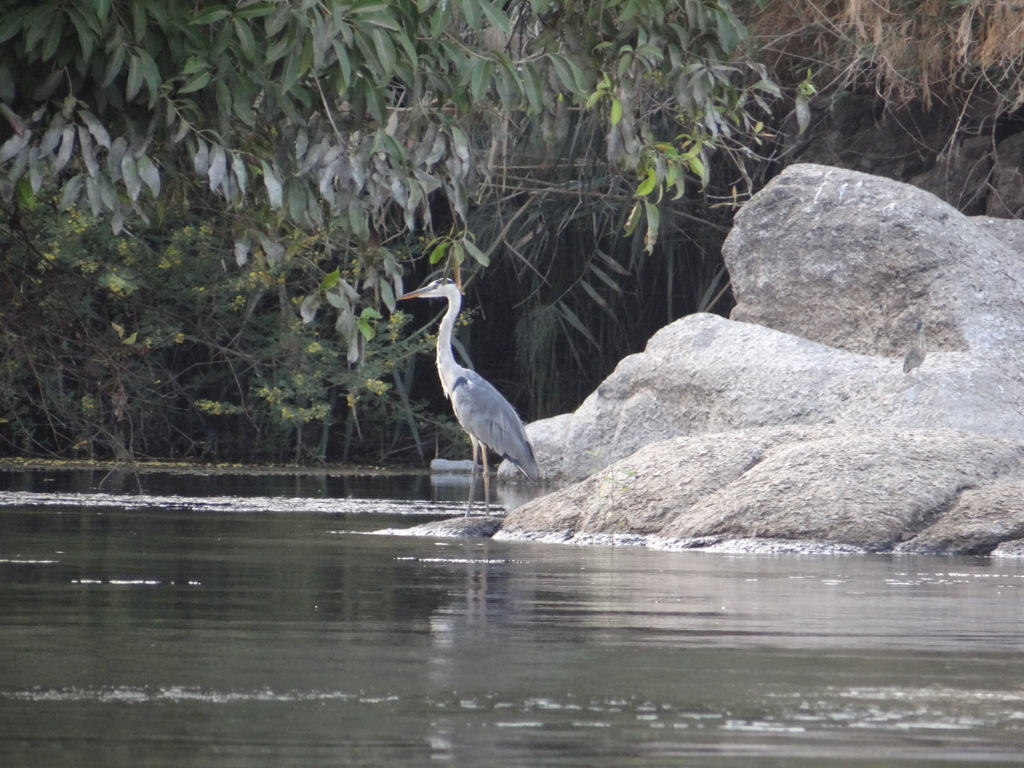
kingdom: Animalia
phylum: Chordata
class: Aves
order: Pelecaniformes
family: Ardeidae
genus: Ardea
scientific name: Ardea cinerea
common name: Grey heron
